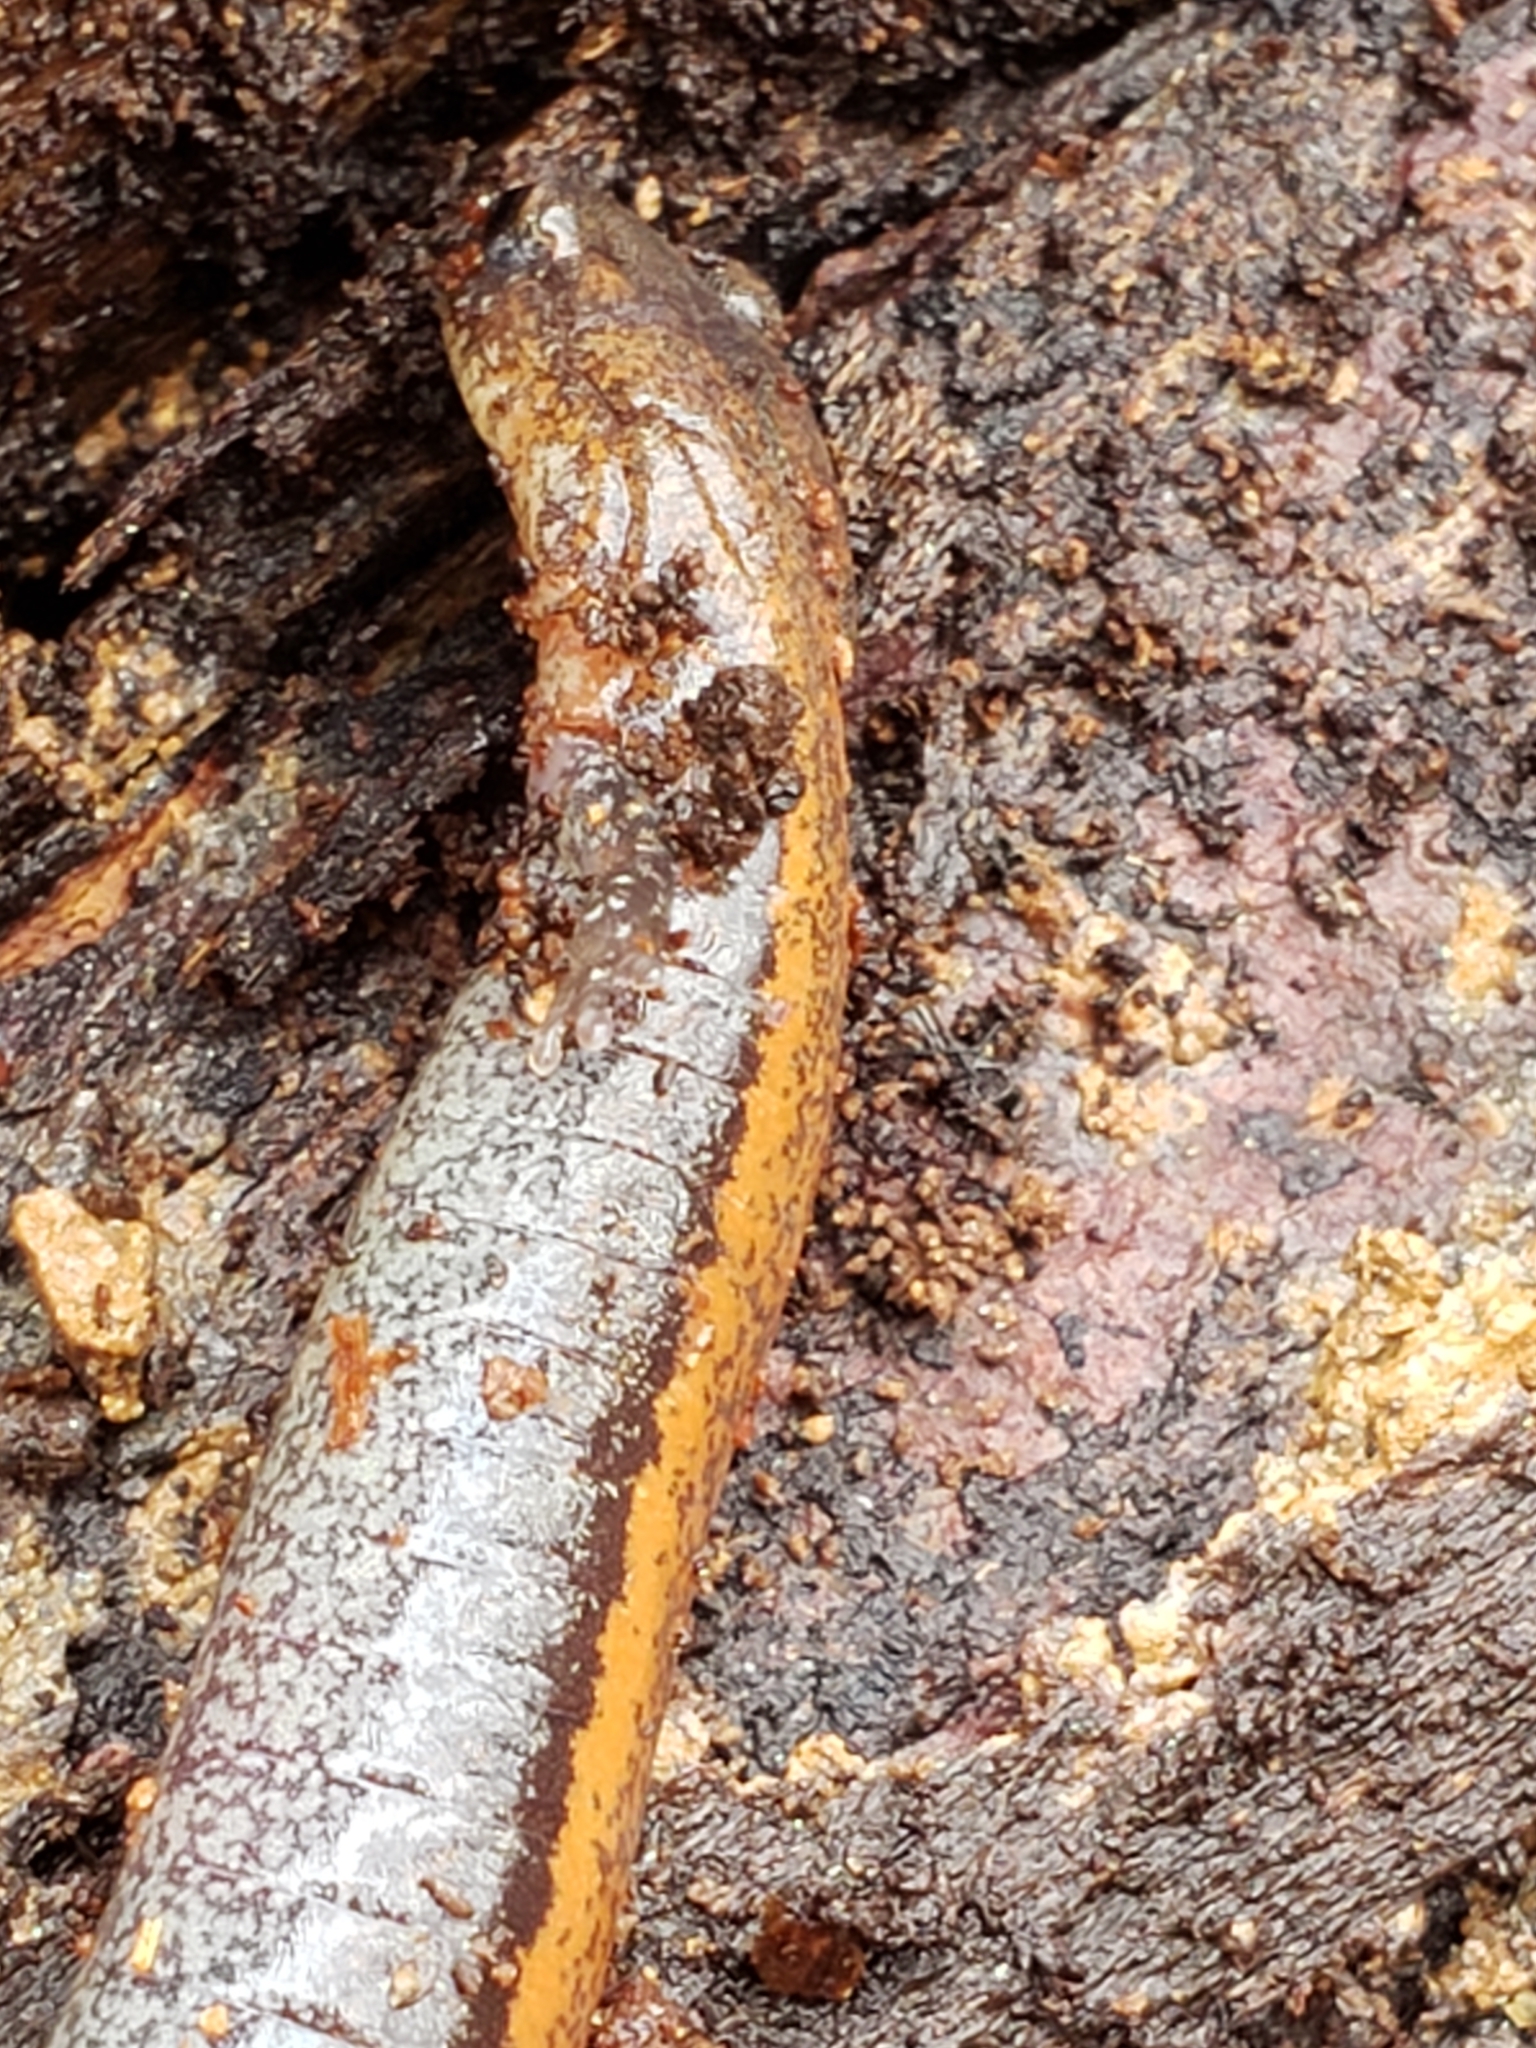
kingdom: Animalia
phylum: Chordata
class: Amphibia
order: Caudata
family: Plethodontidae
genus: Plethodon
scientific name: Plethodon cinereus
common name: Redback salamander
